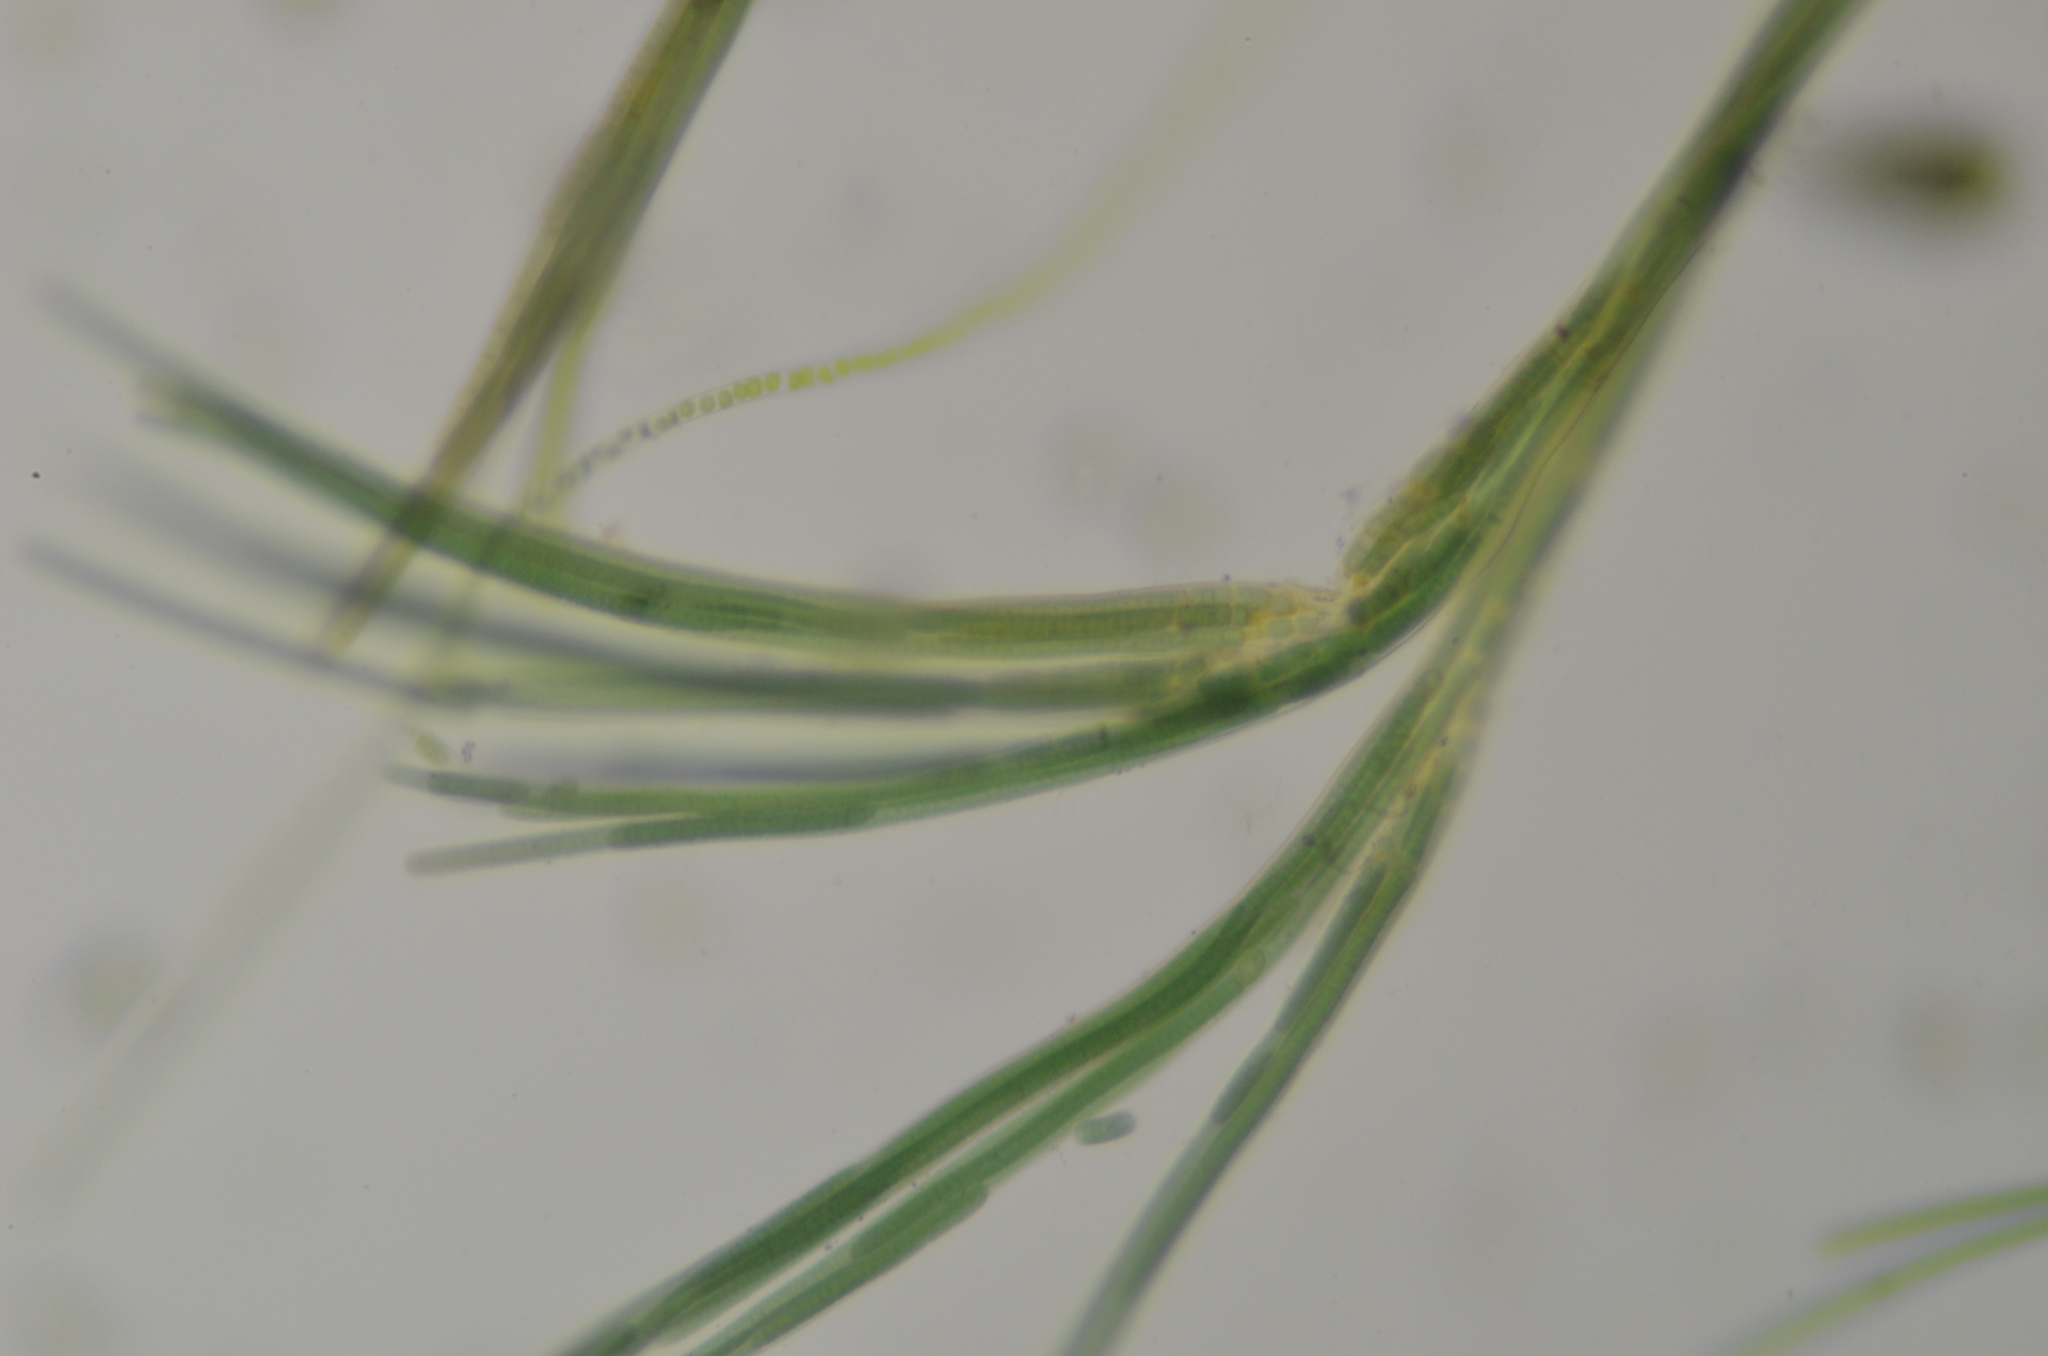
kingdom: Bacteria
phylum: Cyanobacteria
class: Cyanobacteriia
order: Cyanobacteriales
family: Tolypothrichaceae
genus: Coleodesmium
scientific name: Coleodesmium wrangelii
